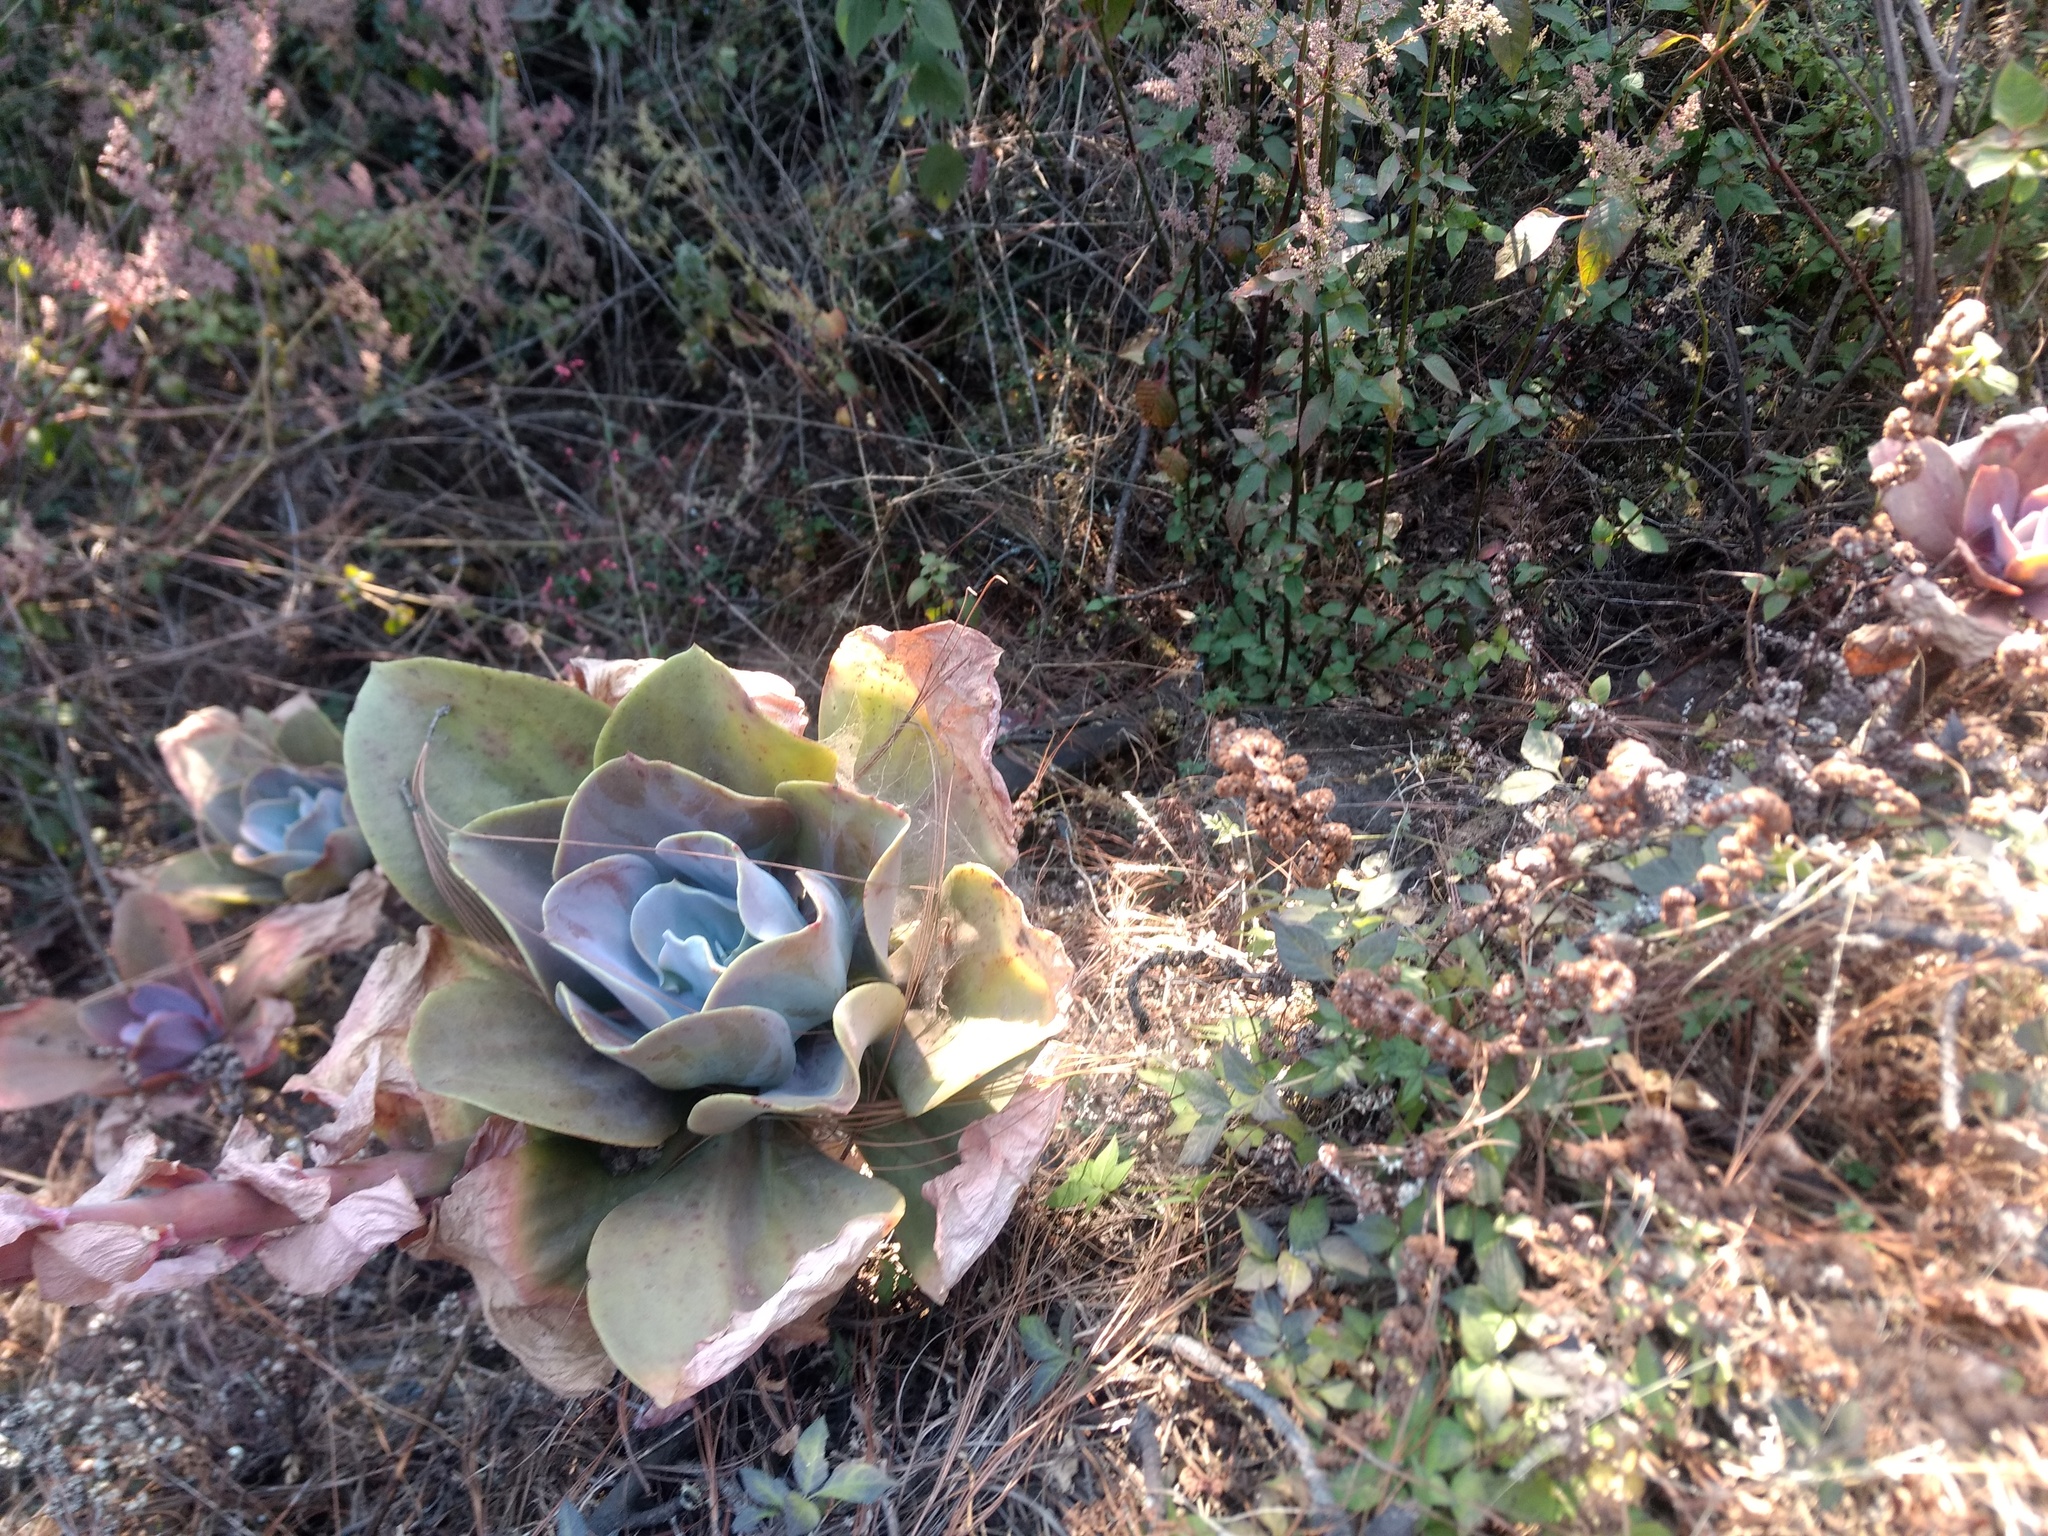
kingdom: Plantae
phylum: Tracheophyta
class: Magnoliopsida
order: Saxifragales
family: Crassulaceae
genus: Echeveria
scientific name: Echeveria gibbiflora
